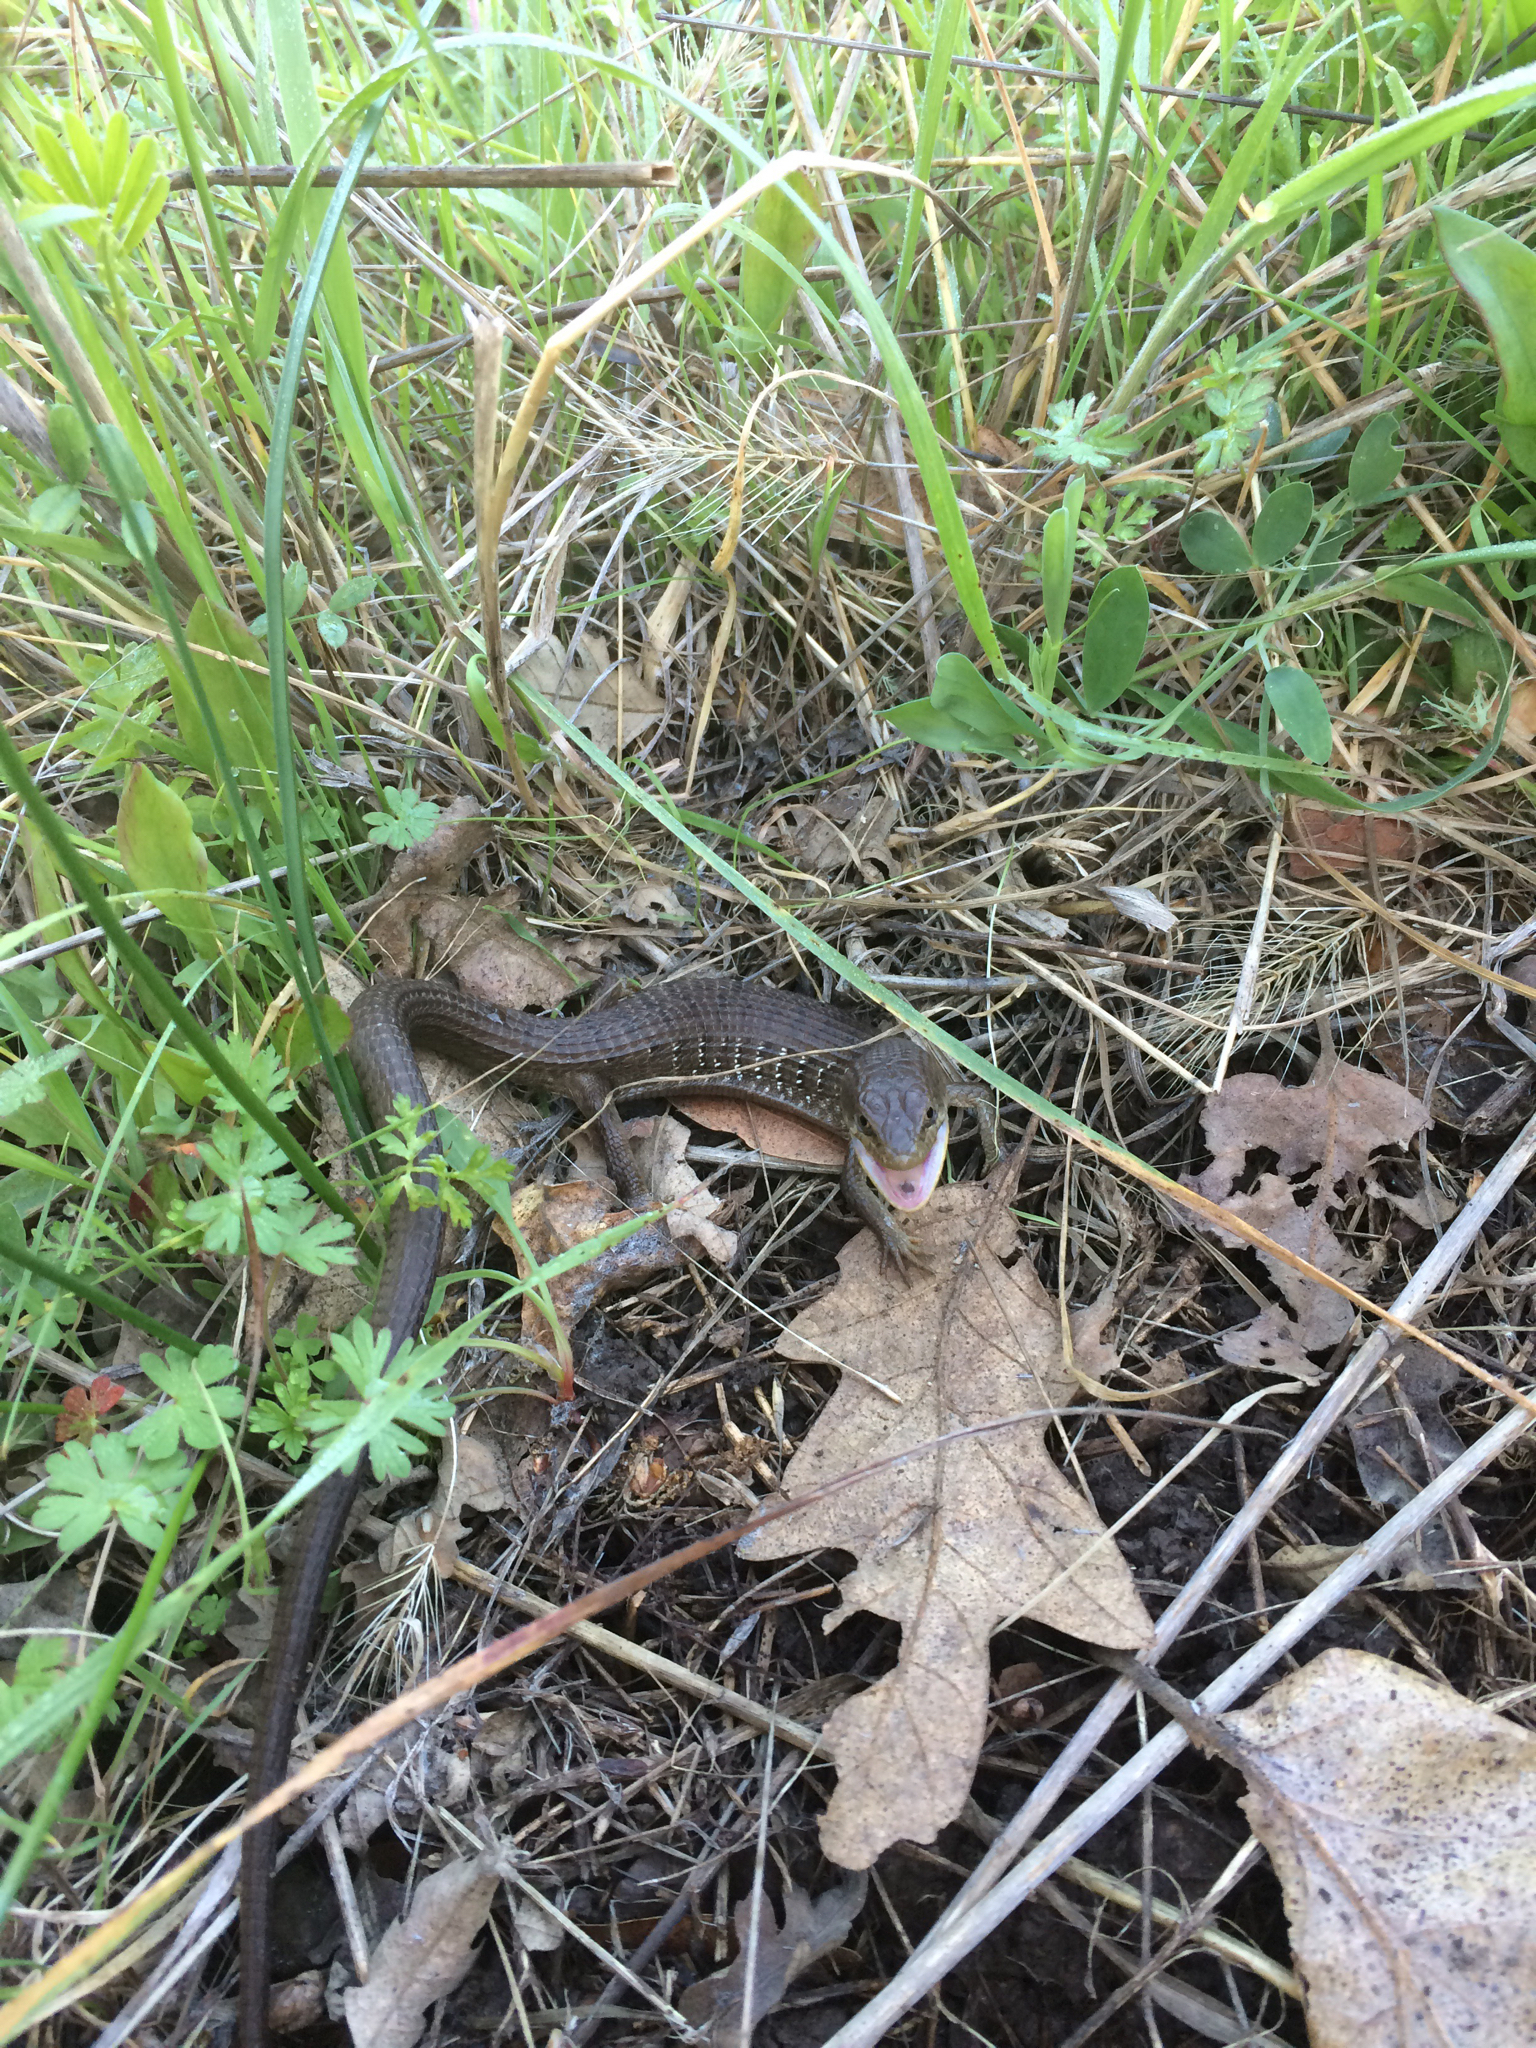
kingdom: Animalia
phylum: Chordata
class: Squamata
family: Anguidae
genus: Elgaria
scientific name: Elgaria multicarinata
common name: Southern alligator lizard
